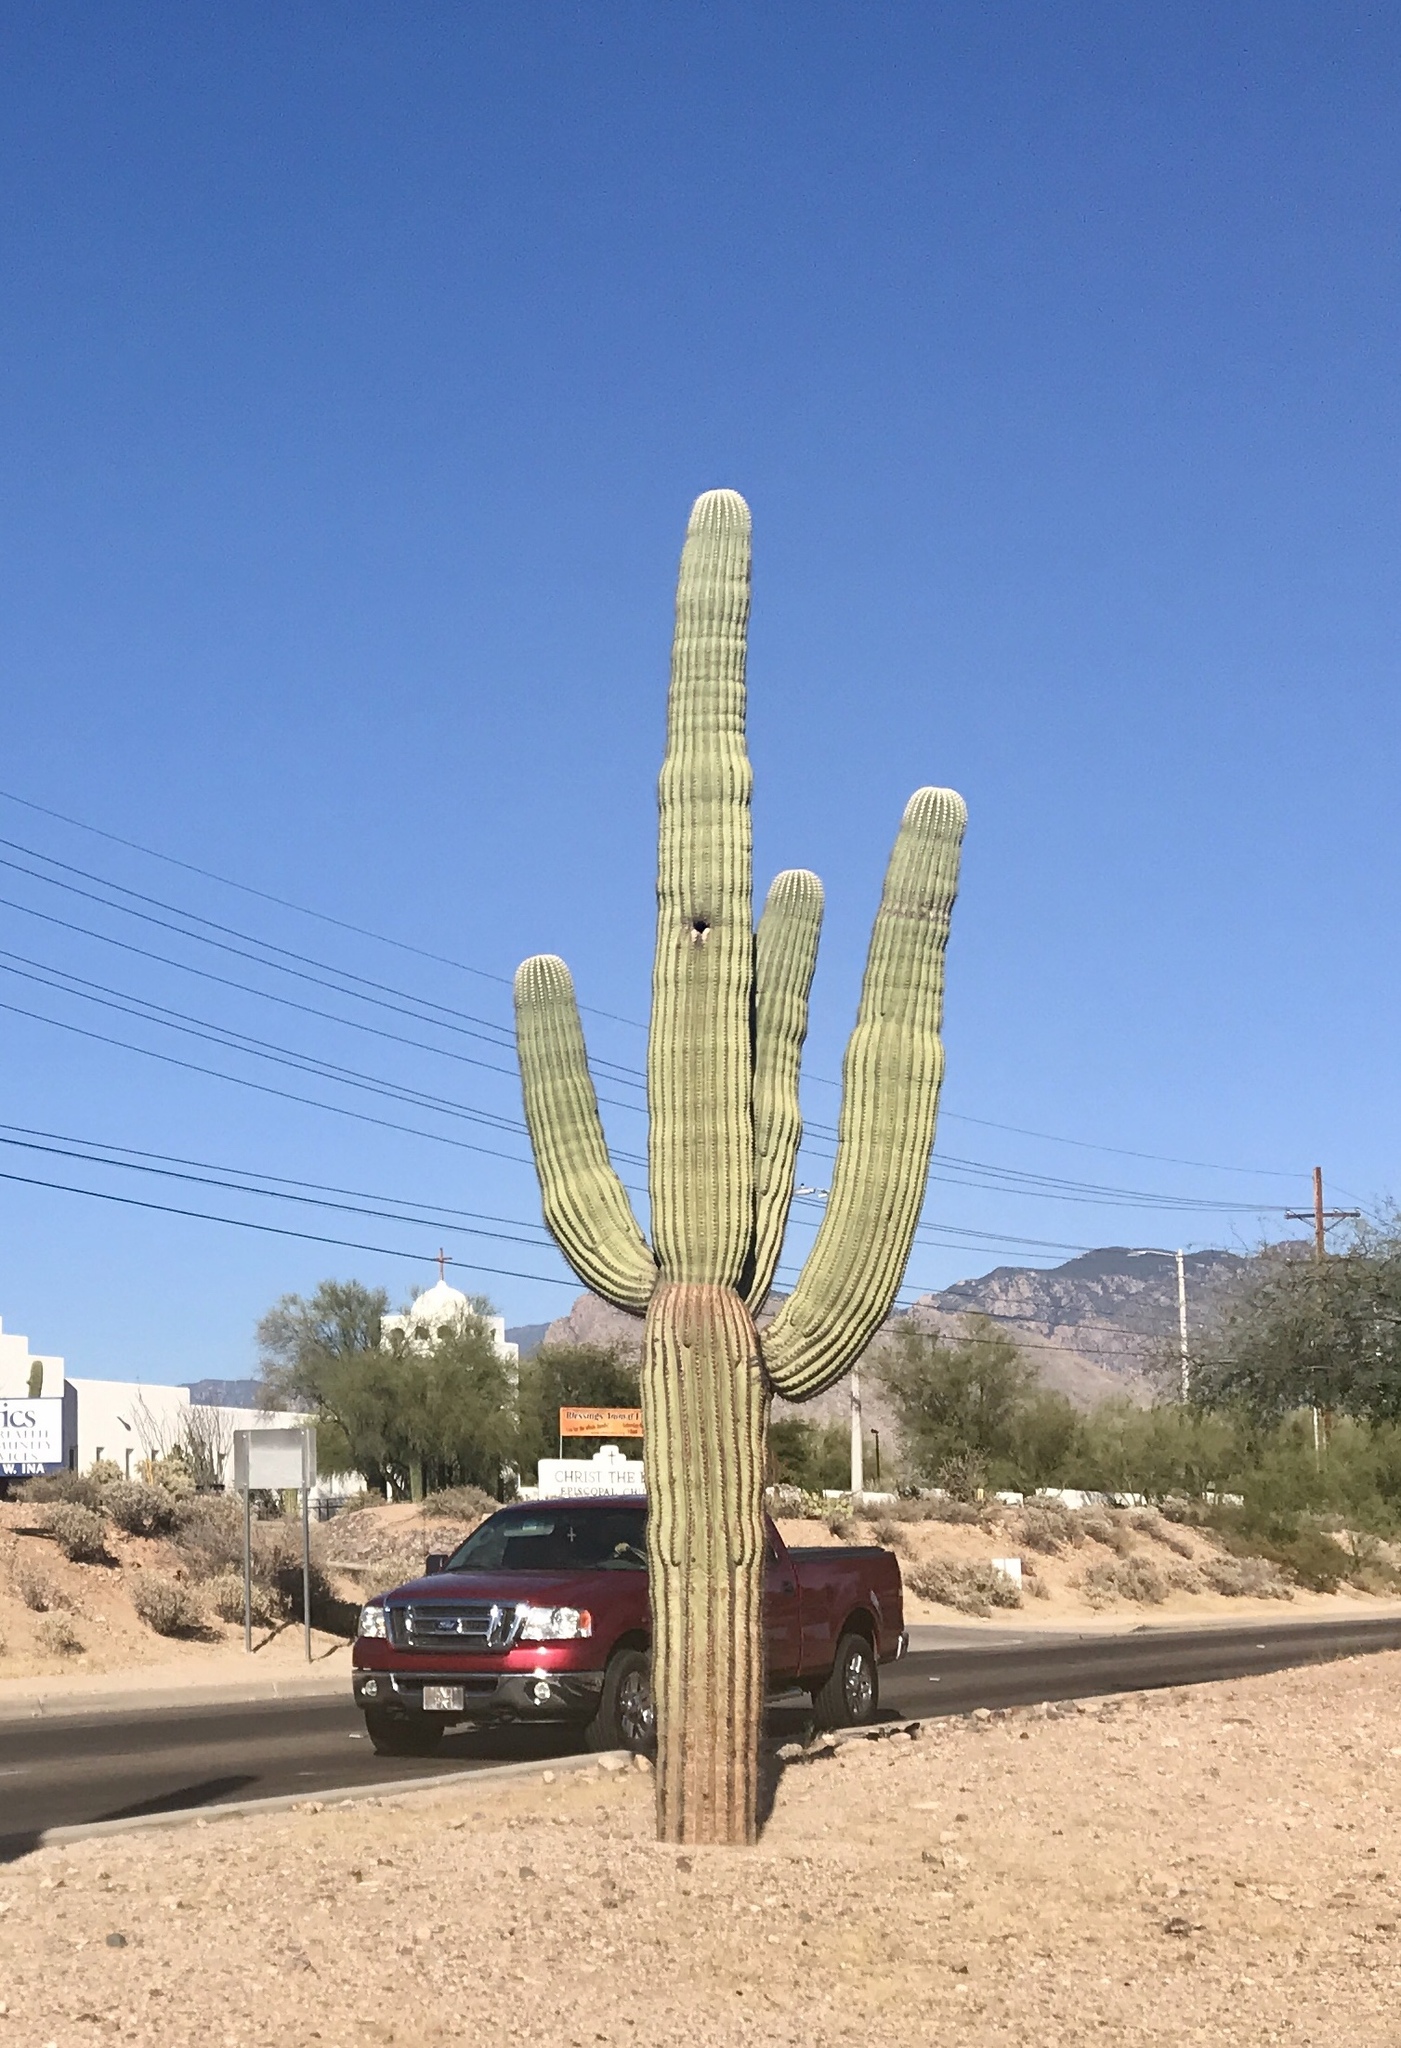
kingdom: Plantae
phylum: Tracheophyta
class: Magnoliopsida
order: Caryophyllales
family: Cactaceae
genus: Carnegiea
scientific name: Carnegiea gigantea
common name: Saguaro
